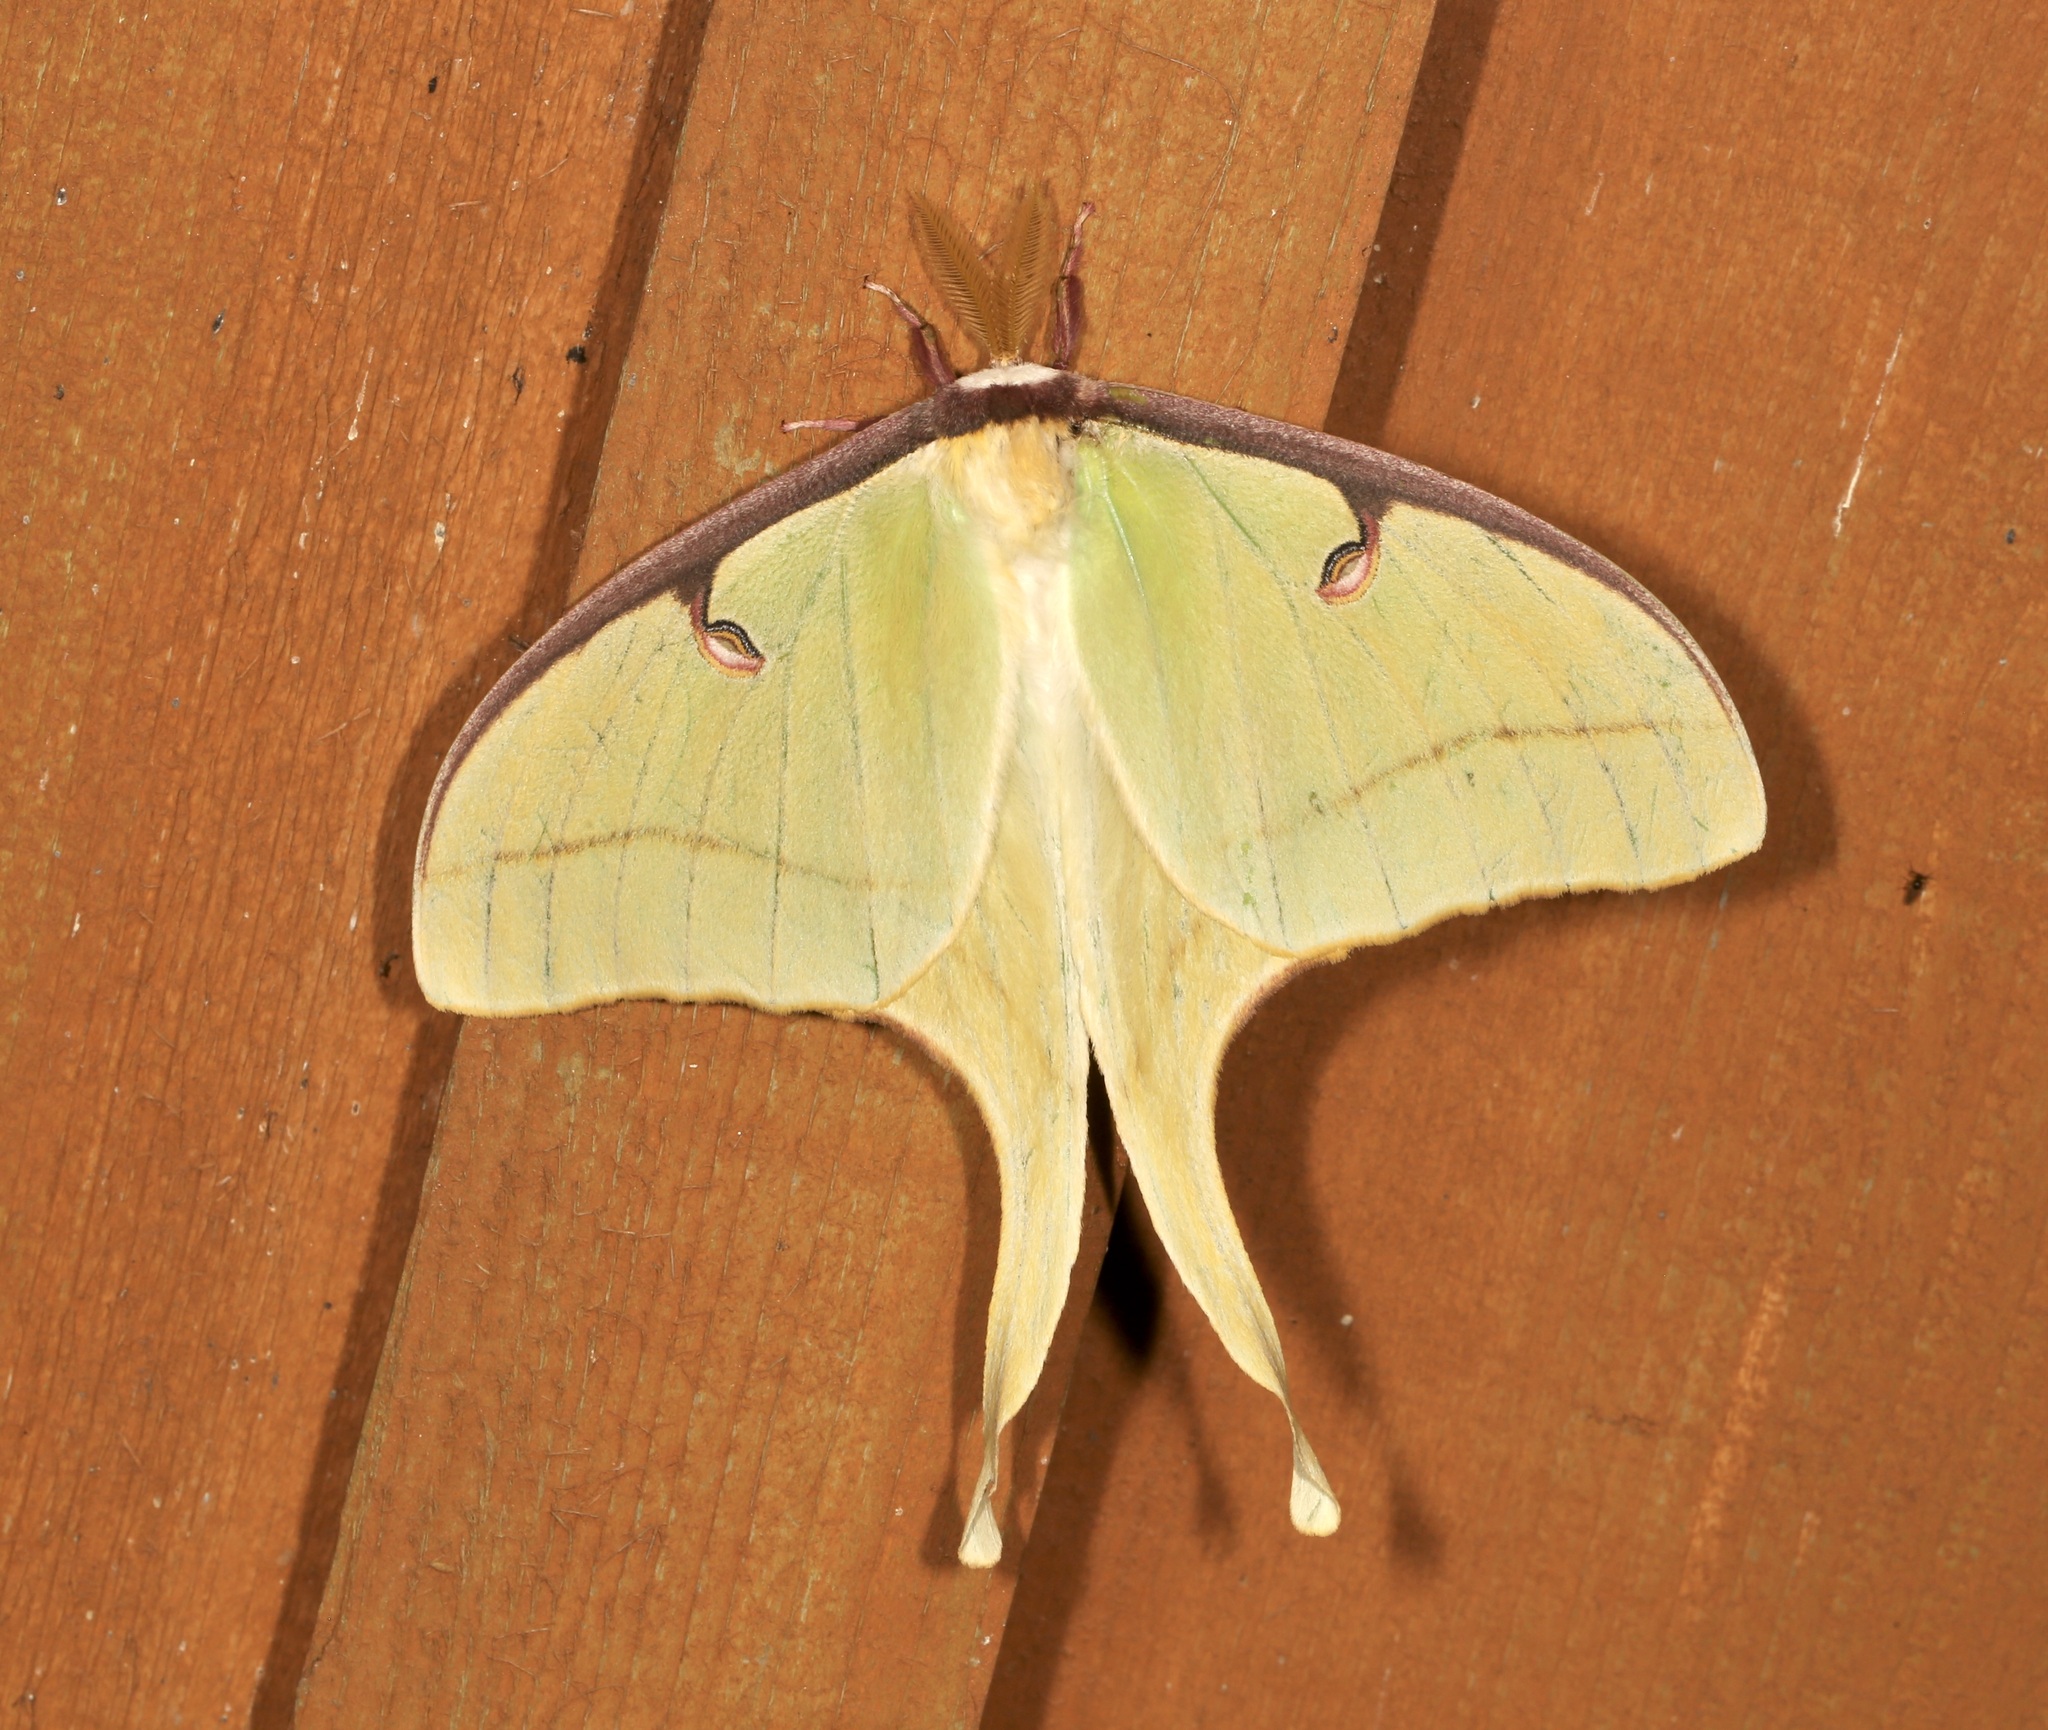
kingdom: Animalia
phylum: Arthropoda
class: Insecta
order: Lepidoptera
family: Saturniidae
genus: Actias
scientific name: Actias luna
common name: Luna moth
